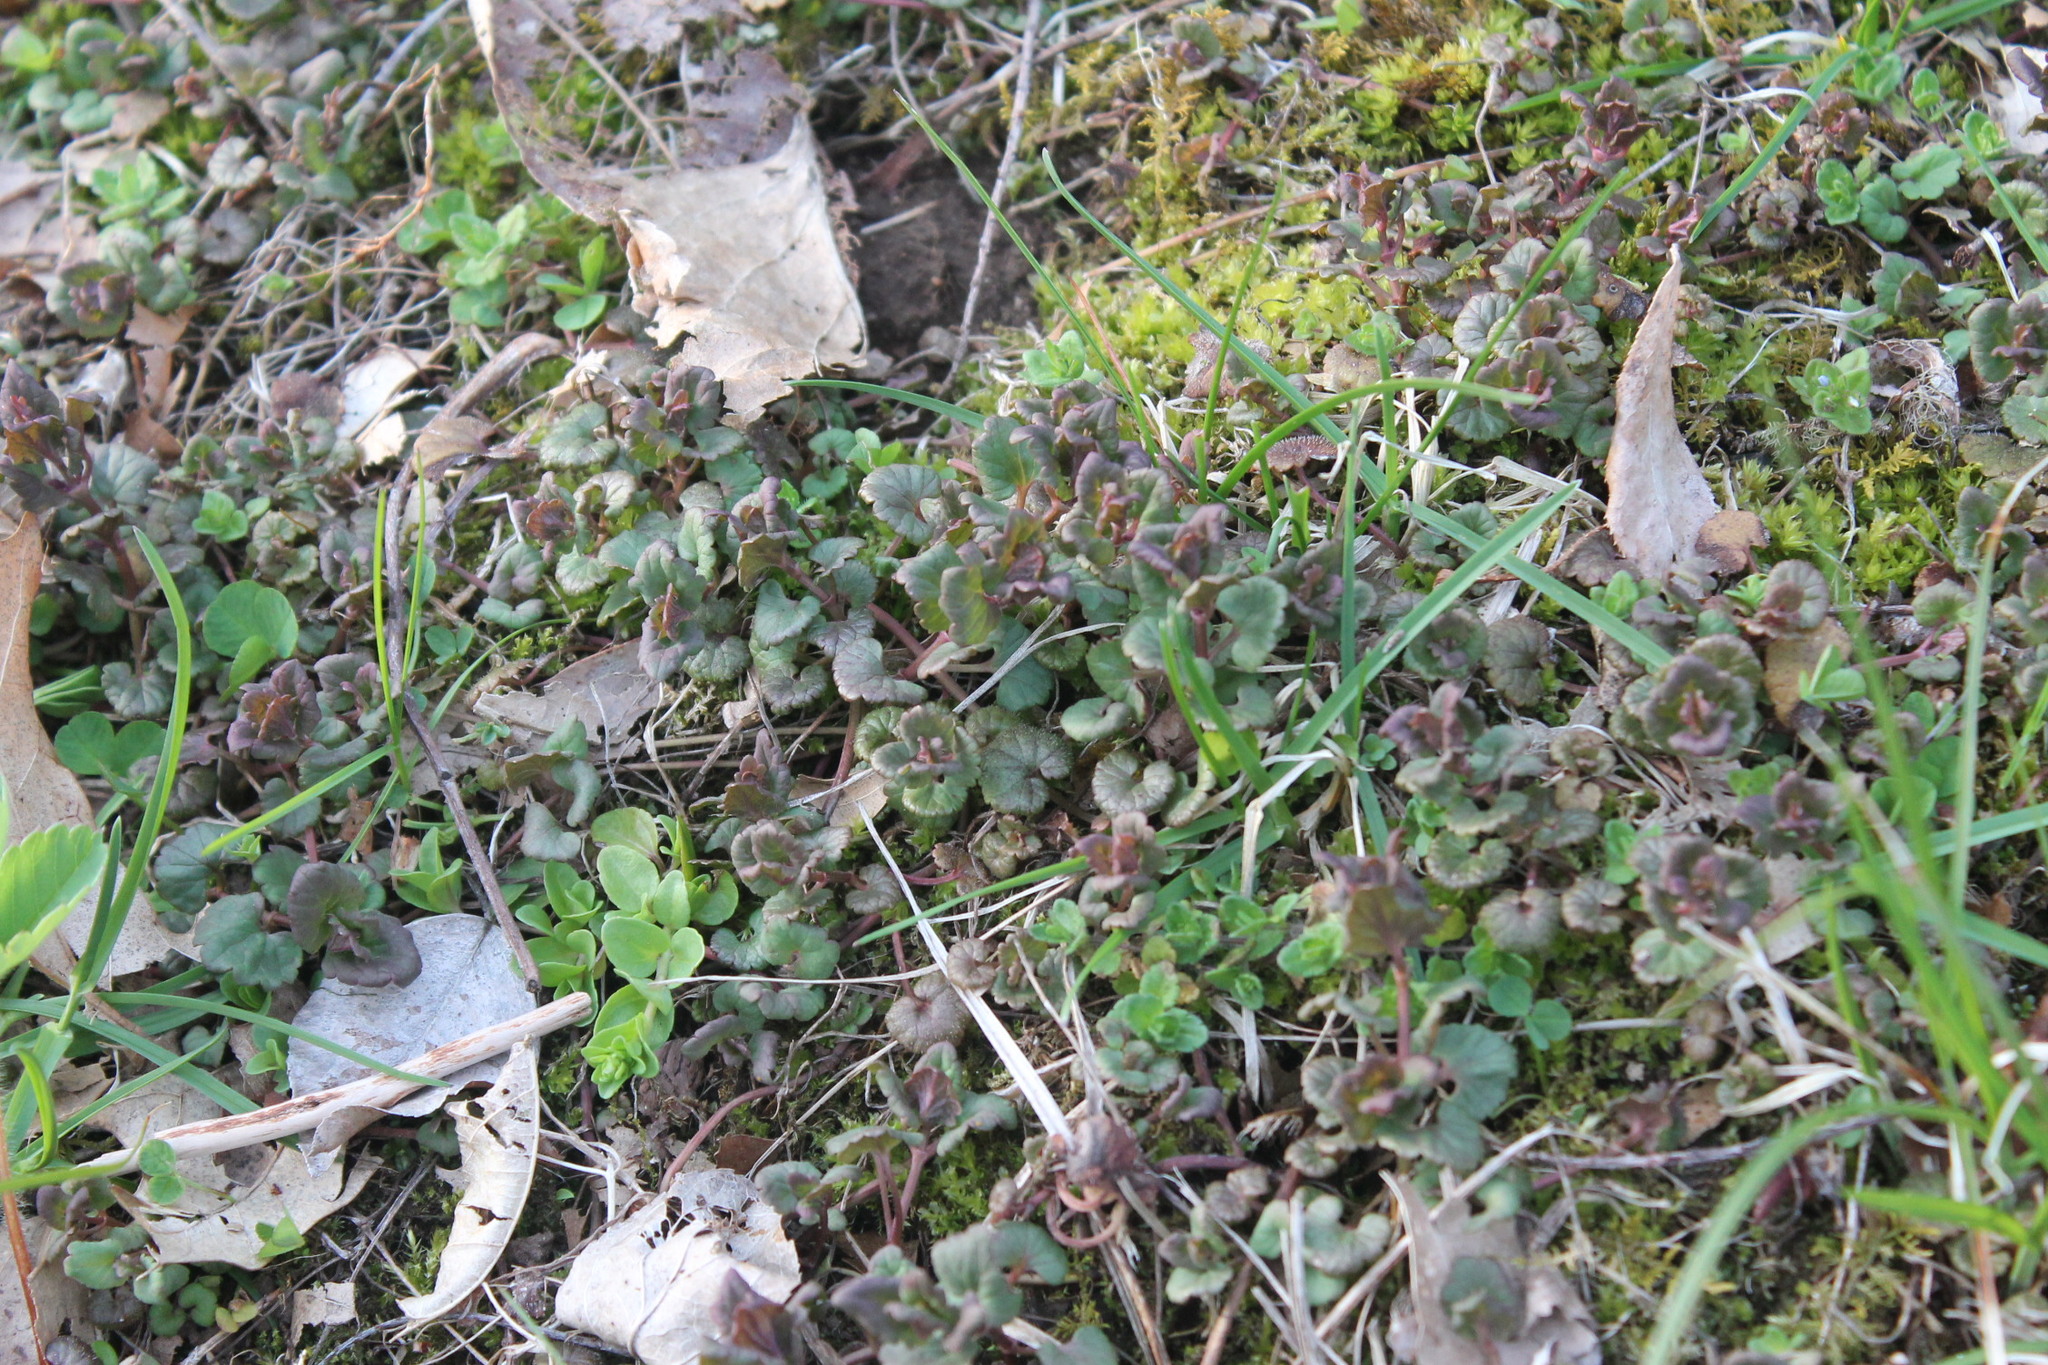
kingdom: Plantae
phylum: Tracheophyta
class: Magnoliopsida
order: Lamiales
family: Lamiaceae
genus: Glechoma
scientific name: Glechoma hederacea
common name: Ground ivy
